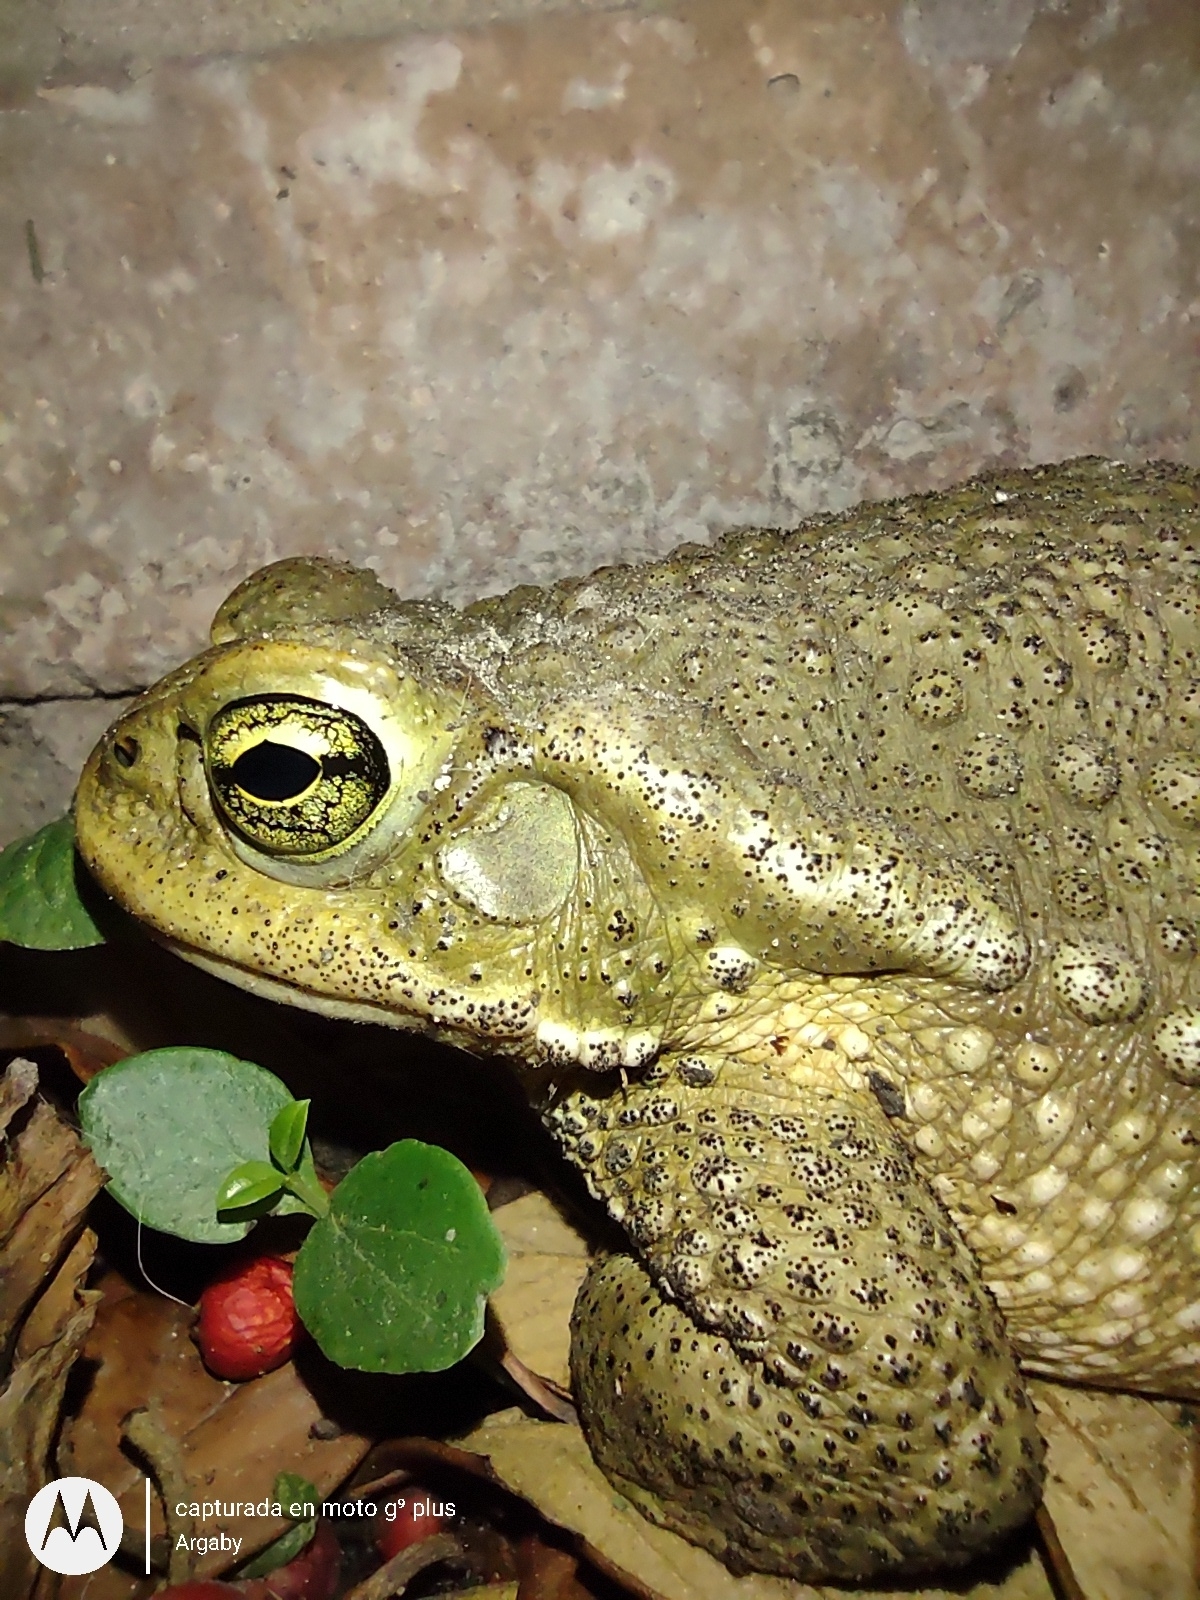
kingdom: Animalia
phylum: Chordata
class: Amphibia
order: Anura
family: Bufonidae
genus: Rhinella
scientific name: Rhinella arenarum
